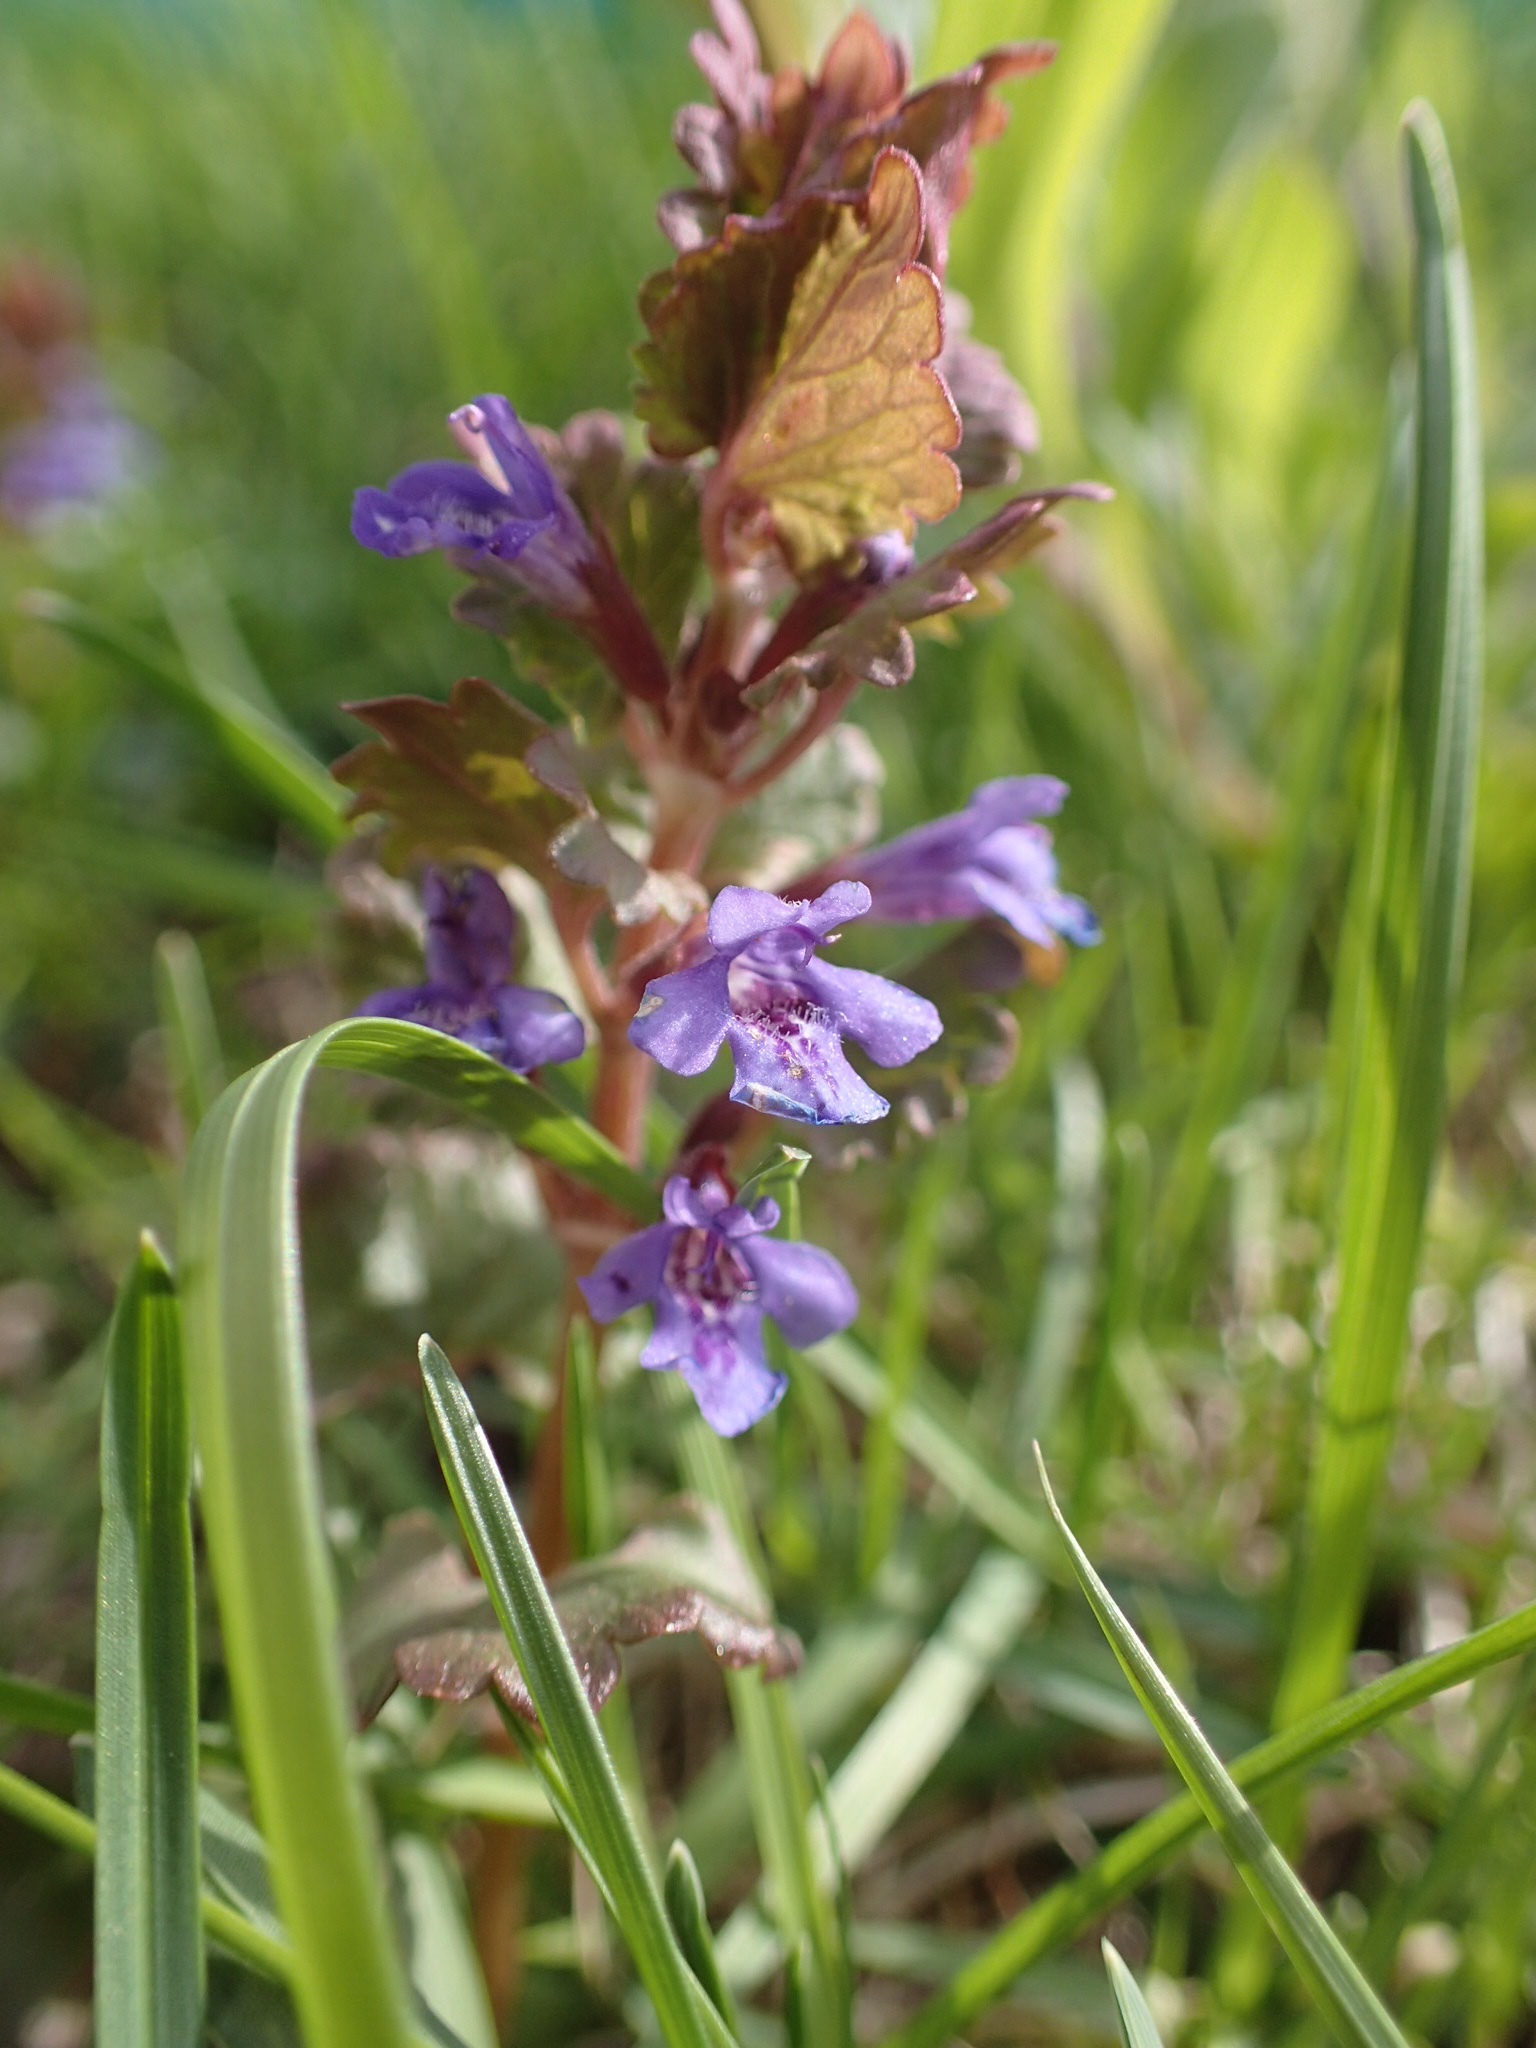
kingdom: Plantae
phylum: Tracheophyta
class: Magnoliopsida
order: Lamiales
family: Lamiaceae
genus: Glechoma
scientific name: Glechoma hederacea
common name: Ground ivy
